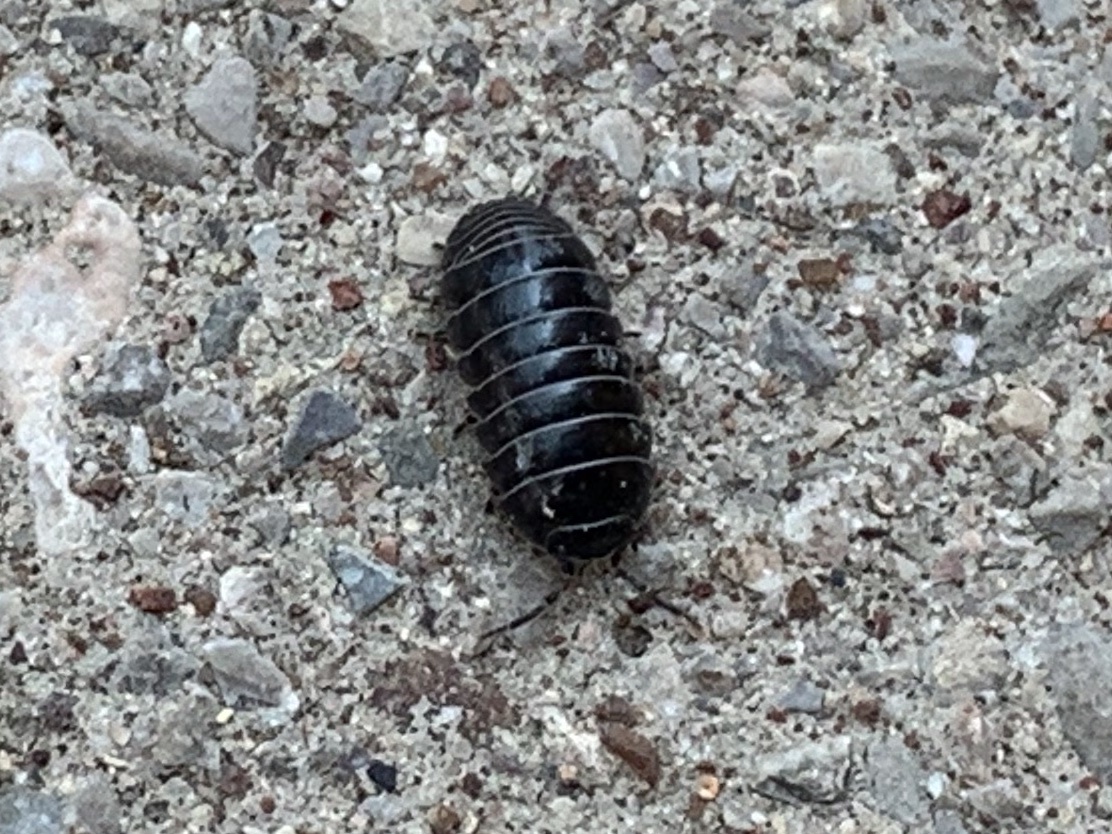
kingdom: Animalia
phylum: Arthropoda
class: Malacostraca
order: Isopoda
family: Armadillidiidae
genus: Armadillidium
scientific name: Armadillidium vulgare
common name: Common pill woodlouse
